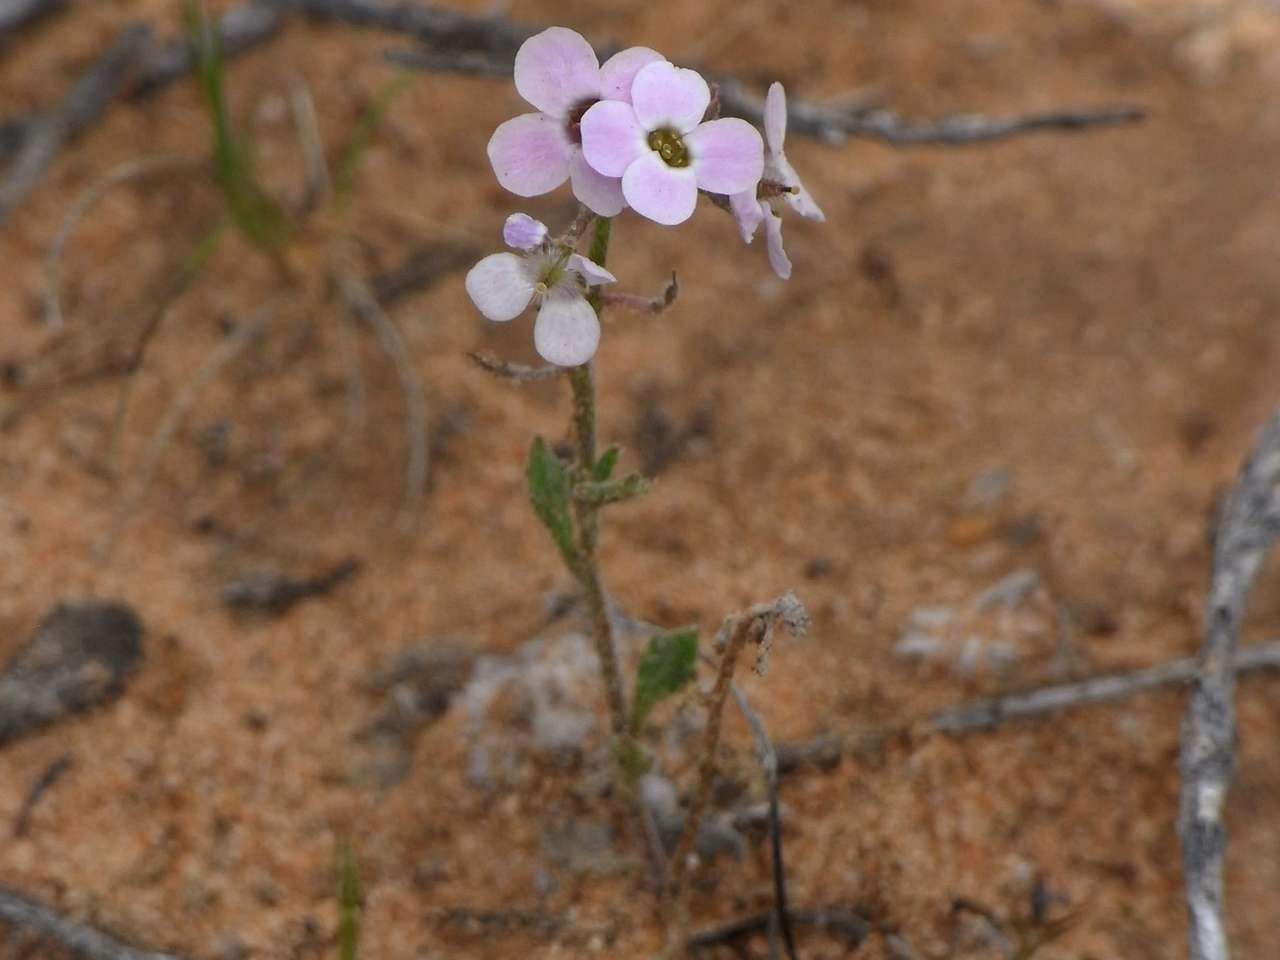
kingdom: Plantae
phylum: Tracheophyta
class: Magnoliopsida
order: Brassicales
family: Brassicaceae
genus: Harmsiodoxa
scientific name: Harmsiodoxa blennodioides
